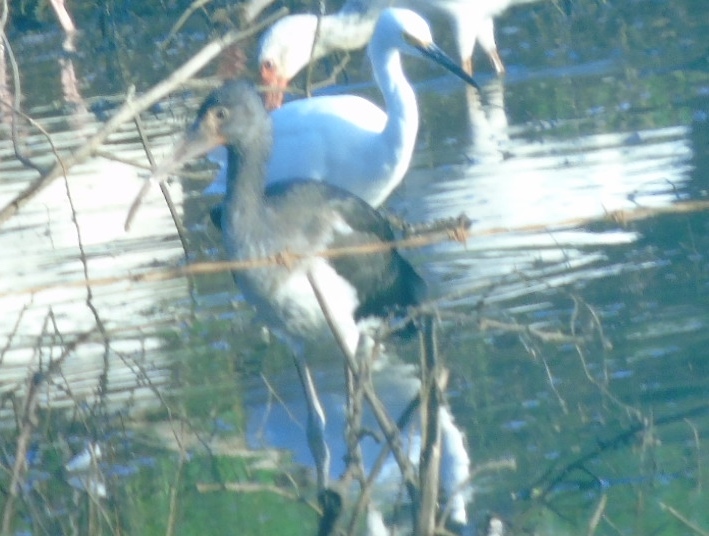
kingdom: Animalia
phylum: Chordata
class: Aves
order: Pelecaniformes
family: Ardeidae
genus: Egretta
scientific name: Egretta thula
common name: Snowy egret
